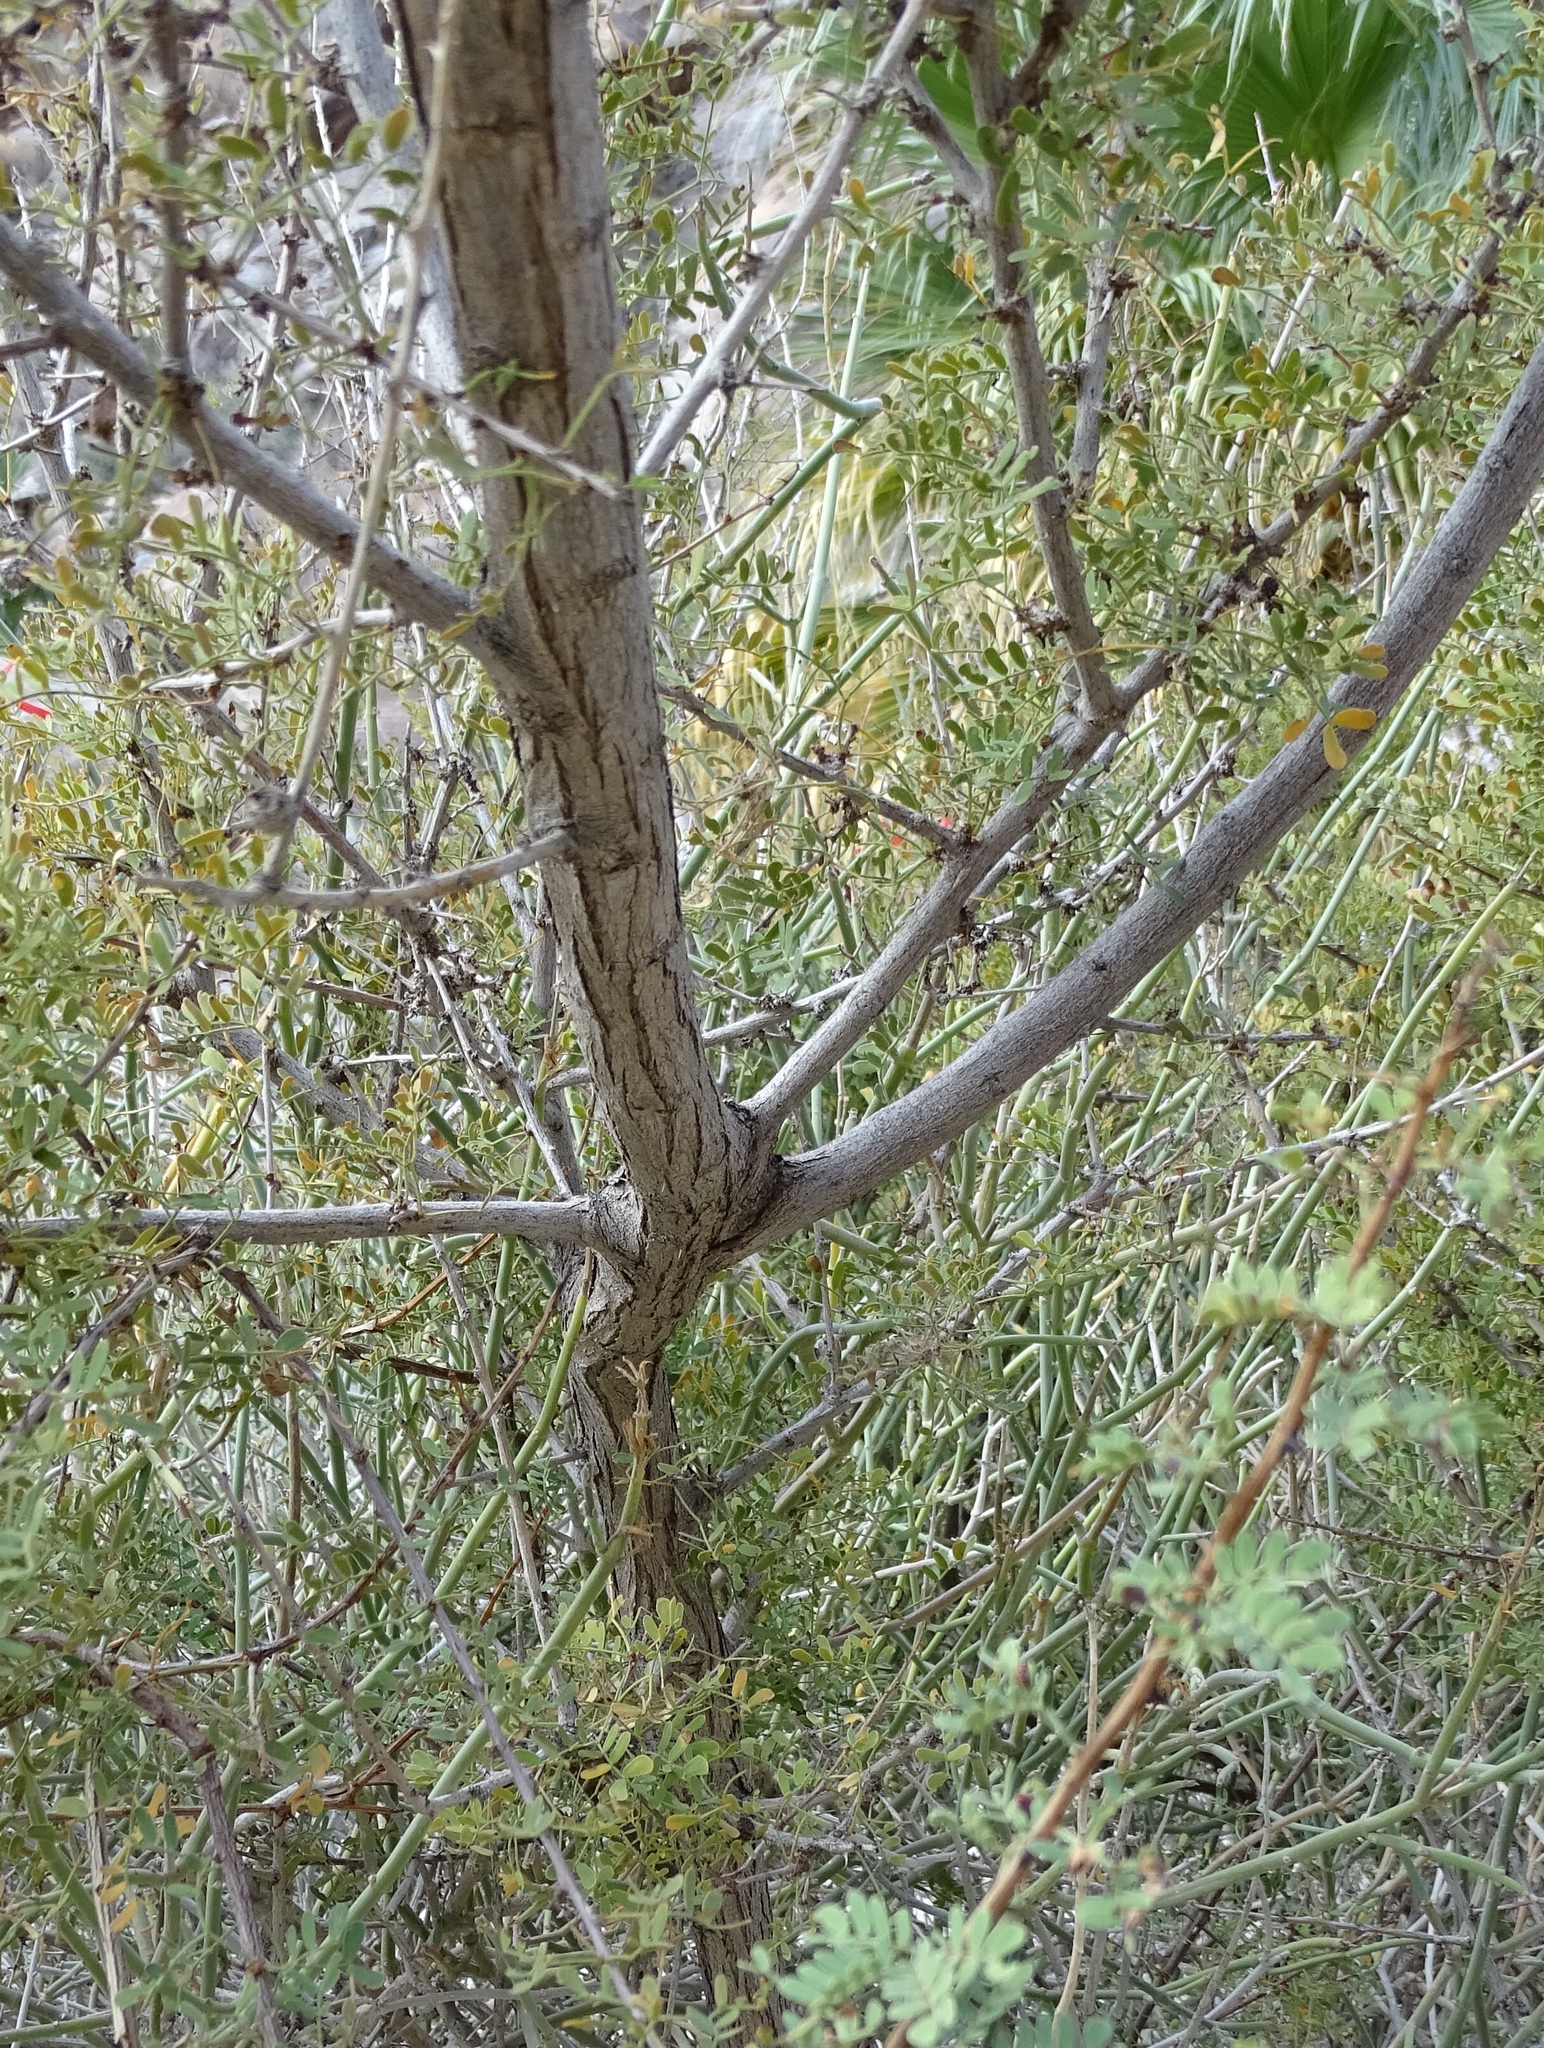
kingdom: Plantae
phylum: Tracheophyta
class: Magnoliopsida
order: Fabales
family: Fabaceae
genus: Senegalia
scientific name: Senegalia greggii
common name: Texas-mimosa
